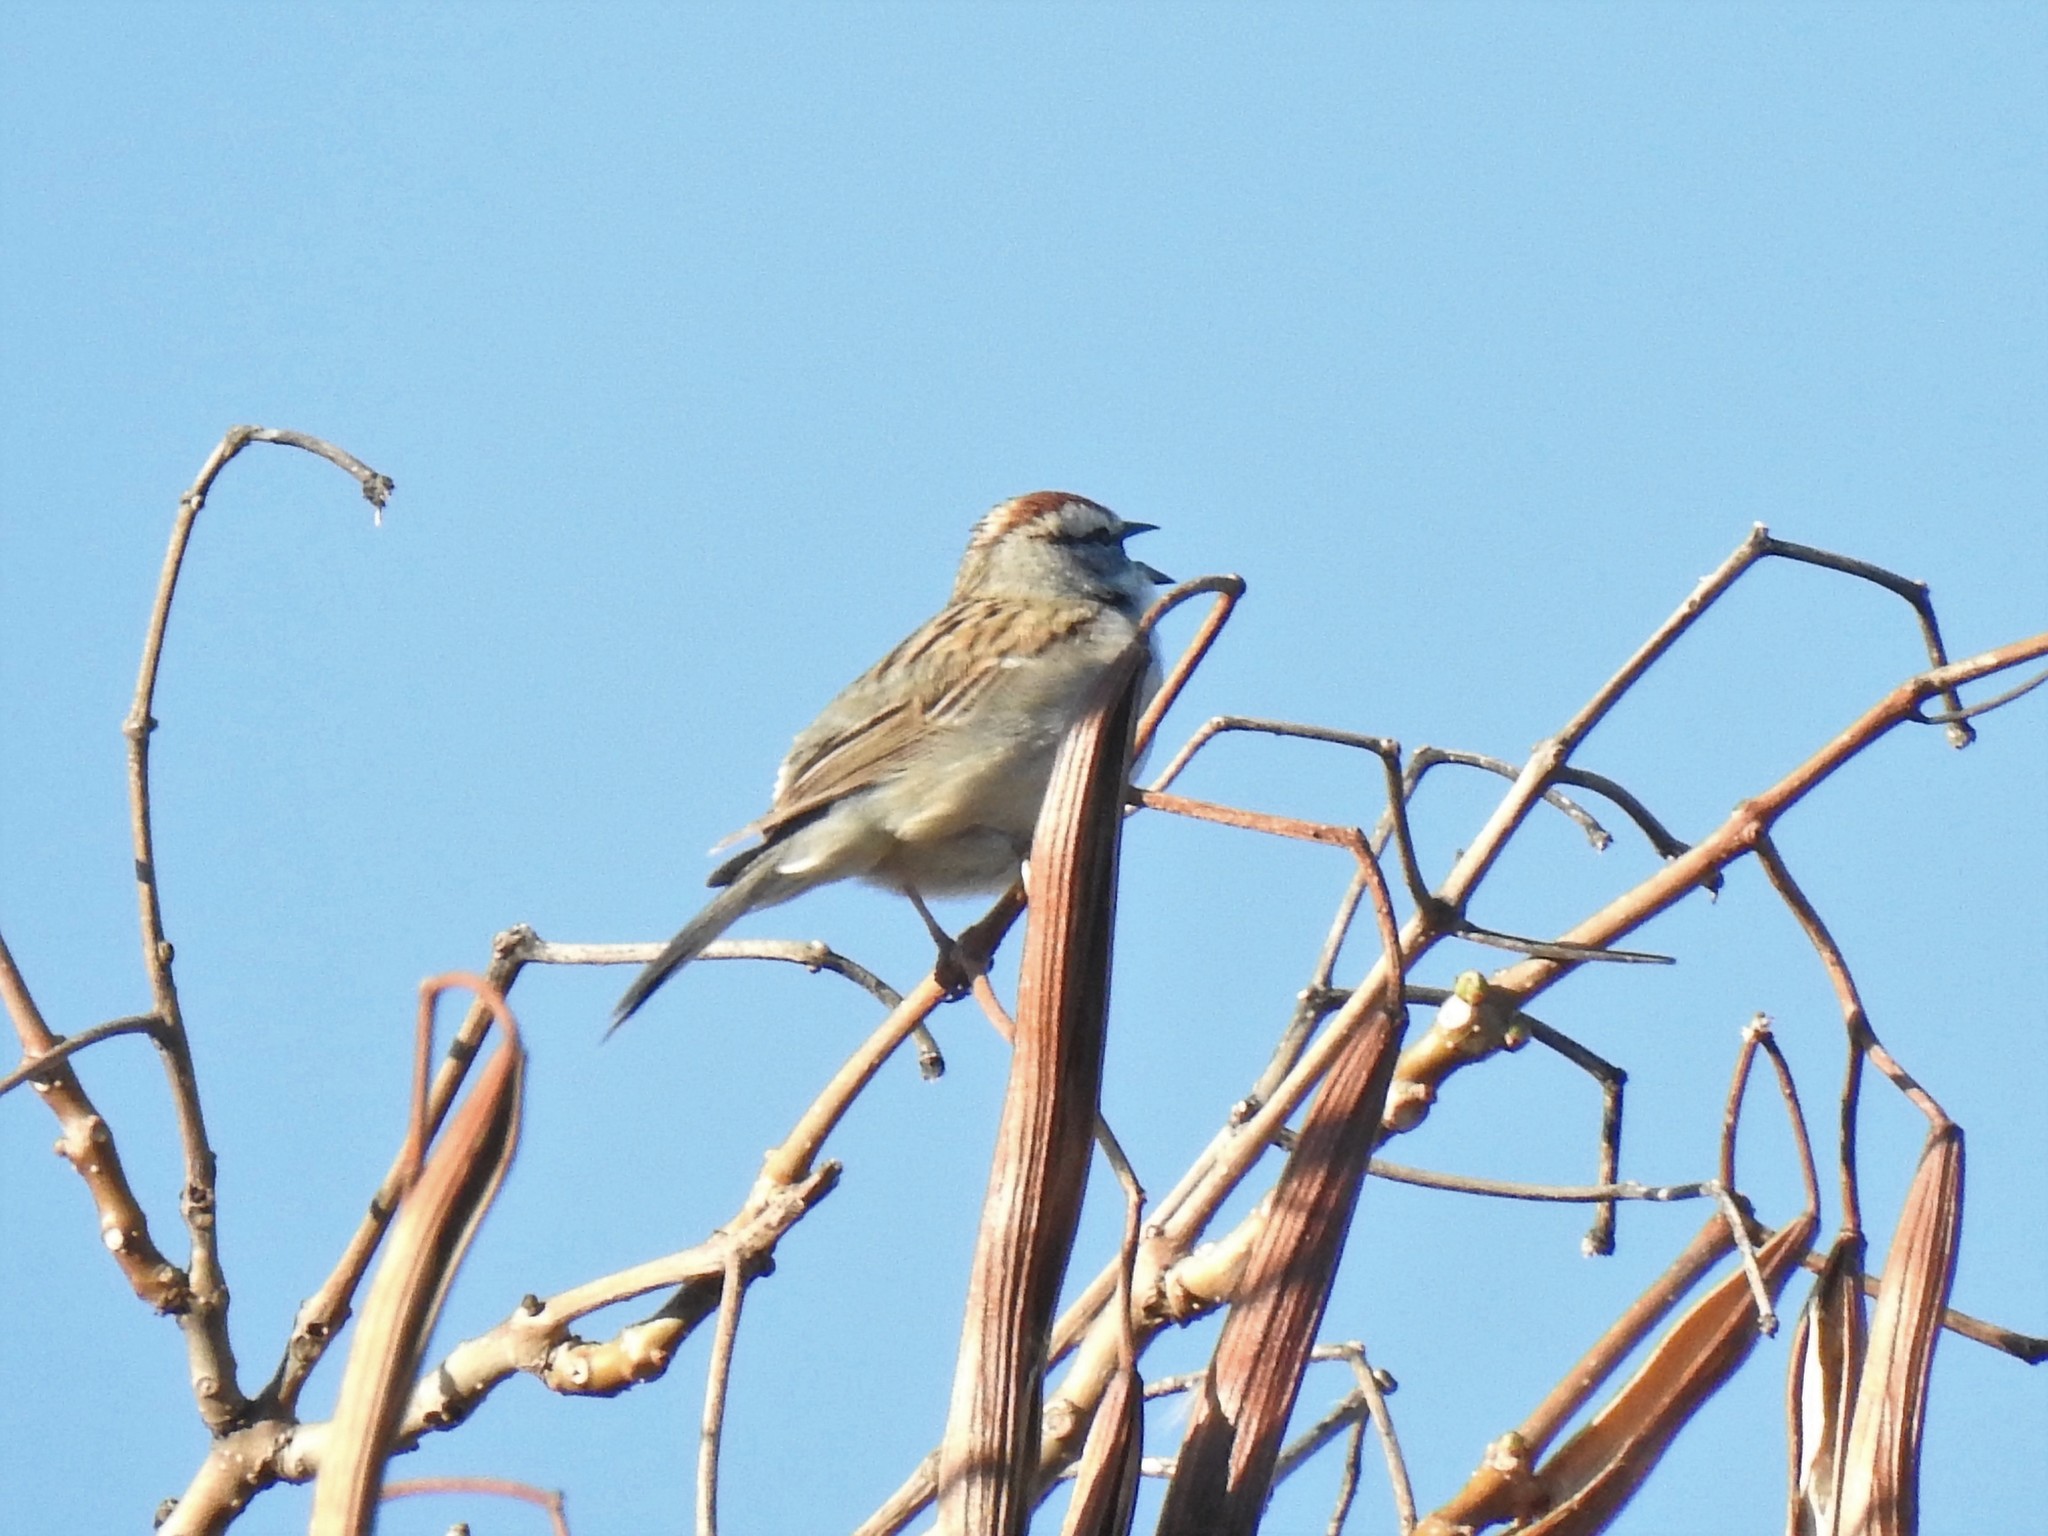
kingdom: Animalia
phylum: Chordata
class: Aves
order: Passeriformes
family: Passerellidae
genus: Spizella
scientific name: Spizella passerina
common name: Chipping sparrow
